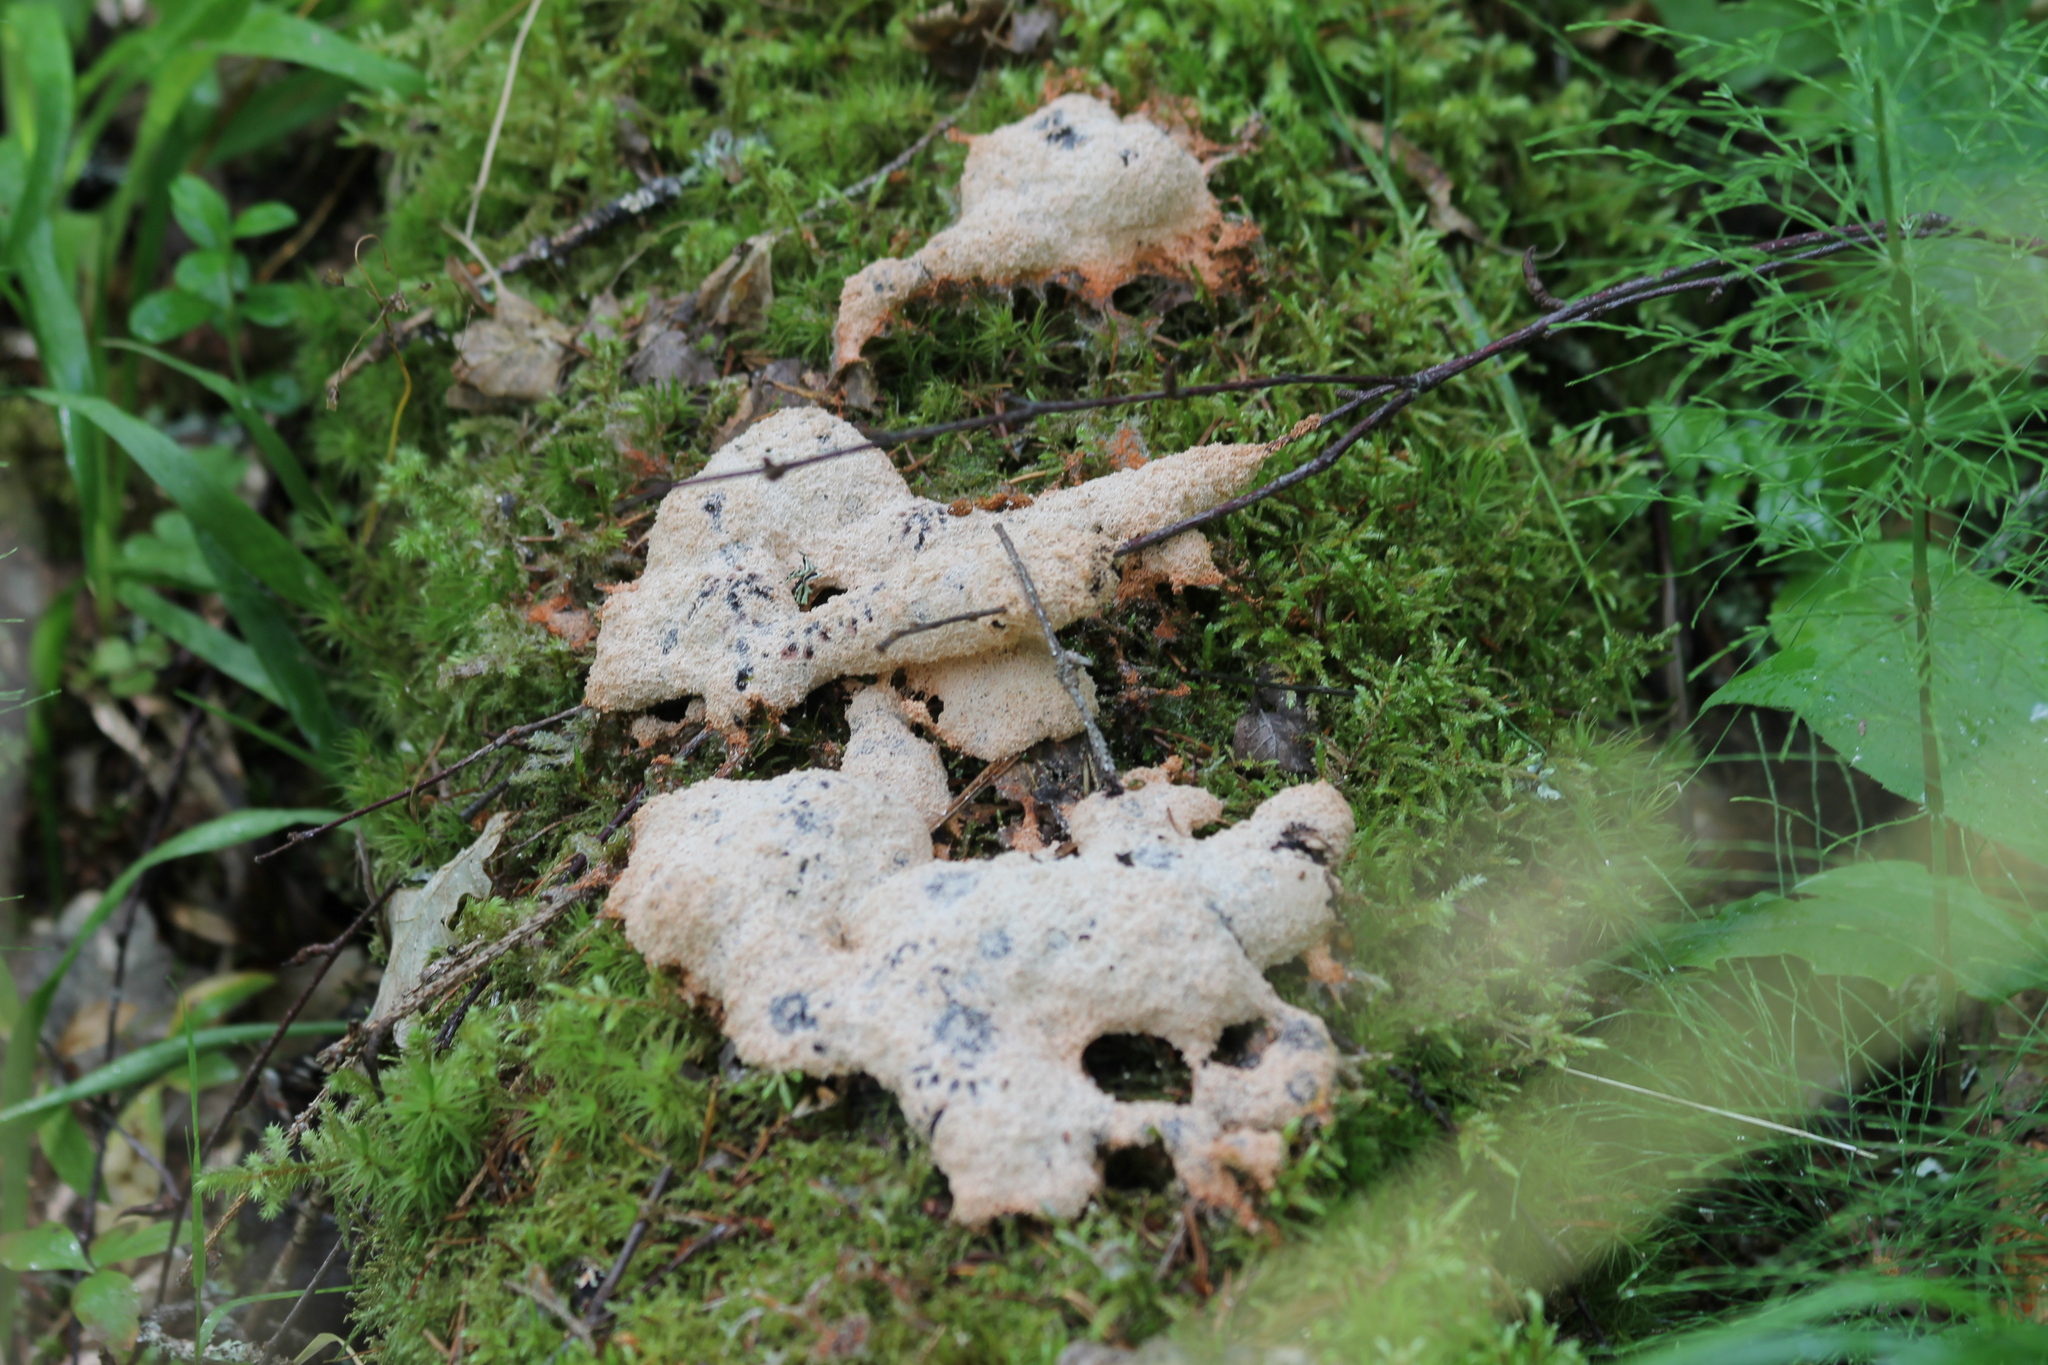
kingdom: Protozoa
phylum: Mycetozoa
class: Myxomycetes
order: Physarales
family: Physaraceae
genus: Fuligo
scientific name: Fuligo septica
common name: Dog vomit slime mold
